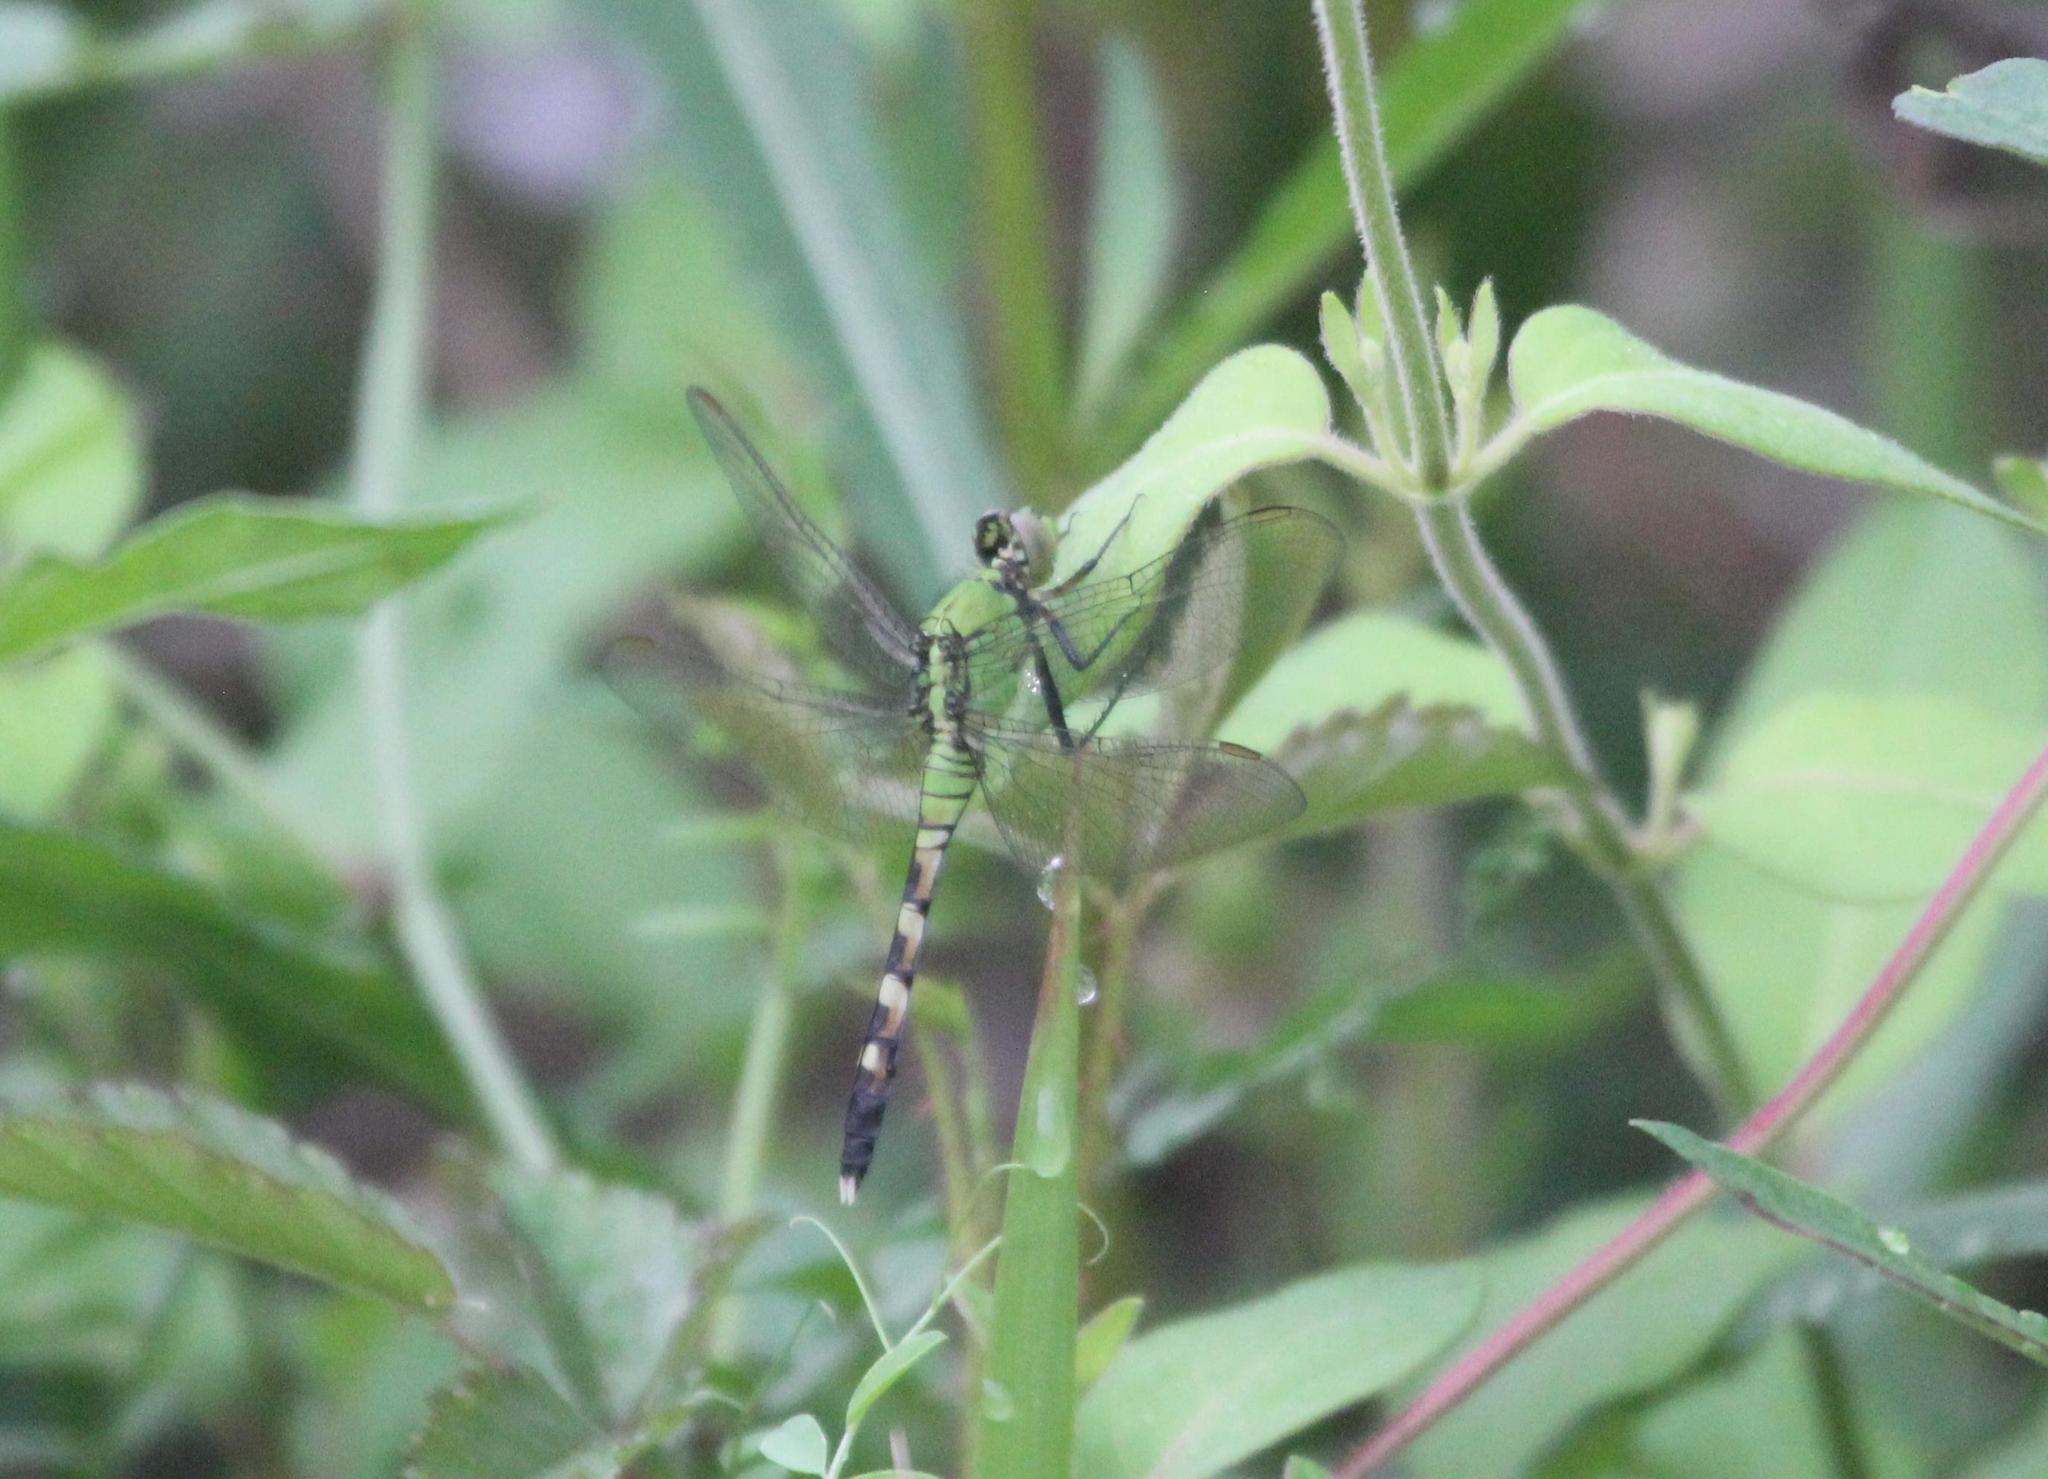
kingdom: Animalia
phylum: Arthropoda
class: Insecta
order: Odonata
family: Libellulidae
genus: Erythemis
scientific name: Erythemis simplicicollis
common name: Eastern pondhawk
